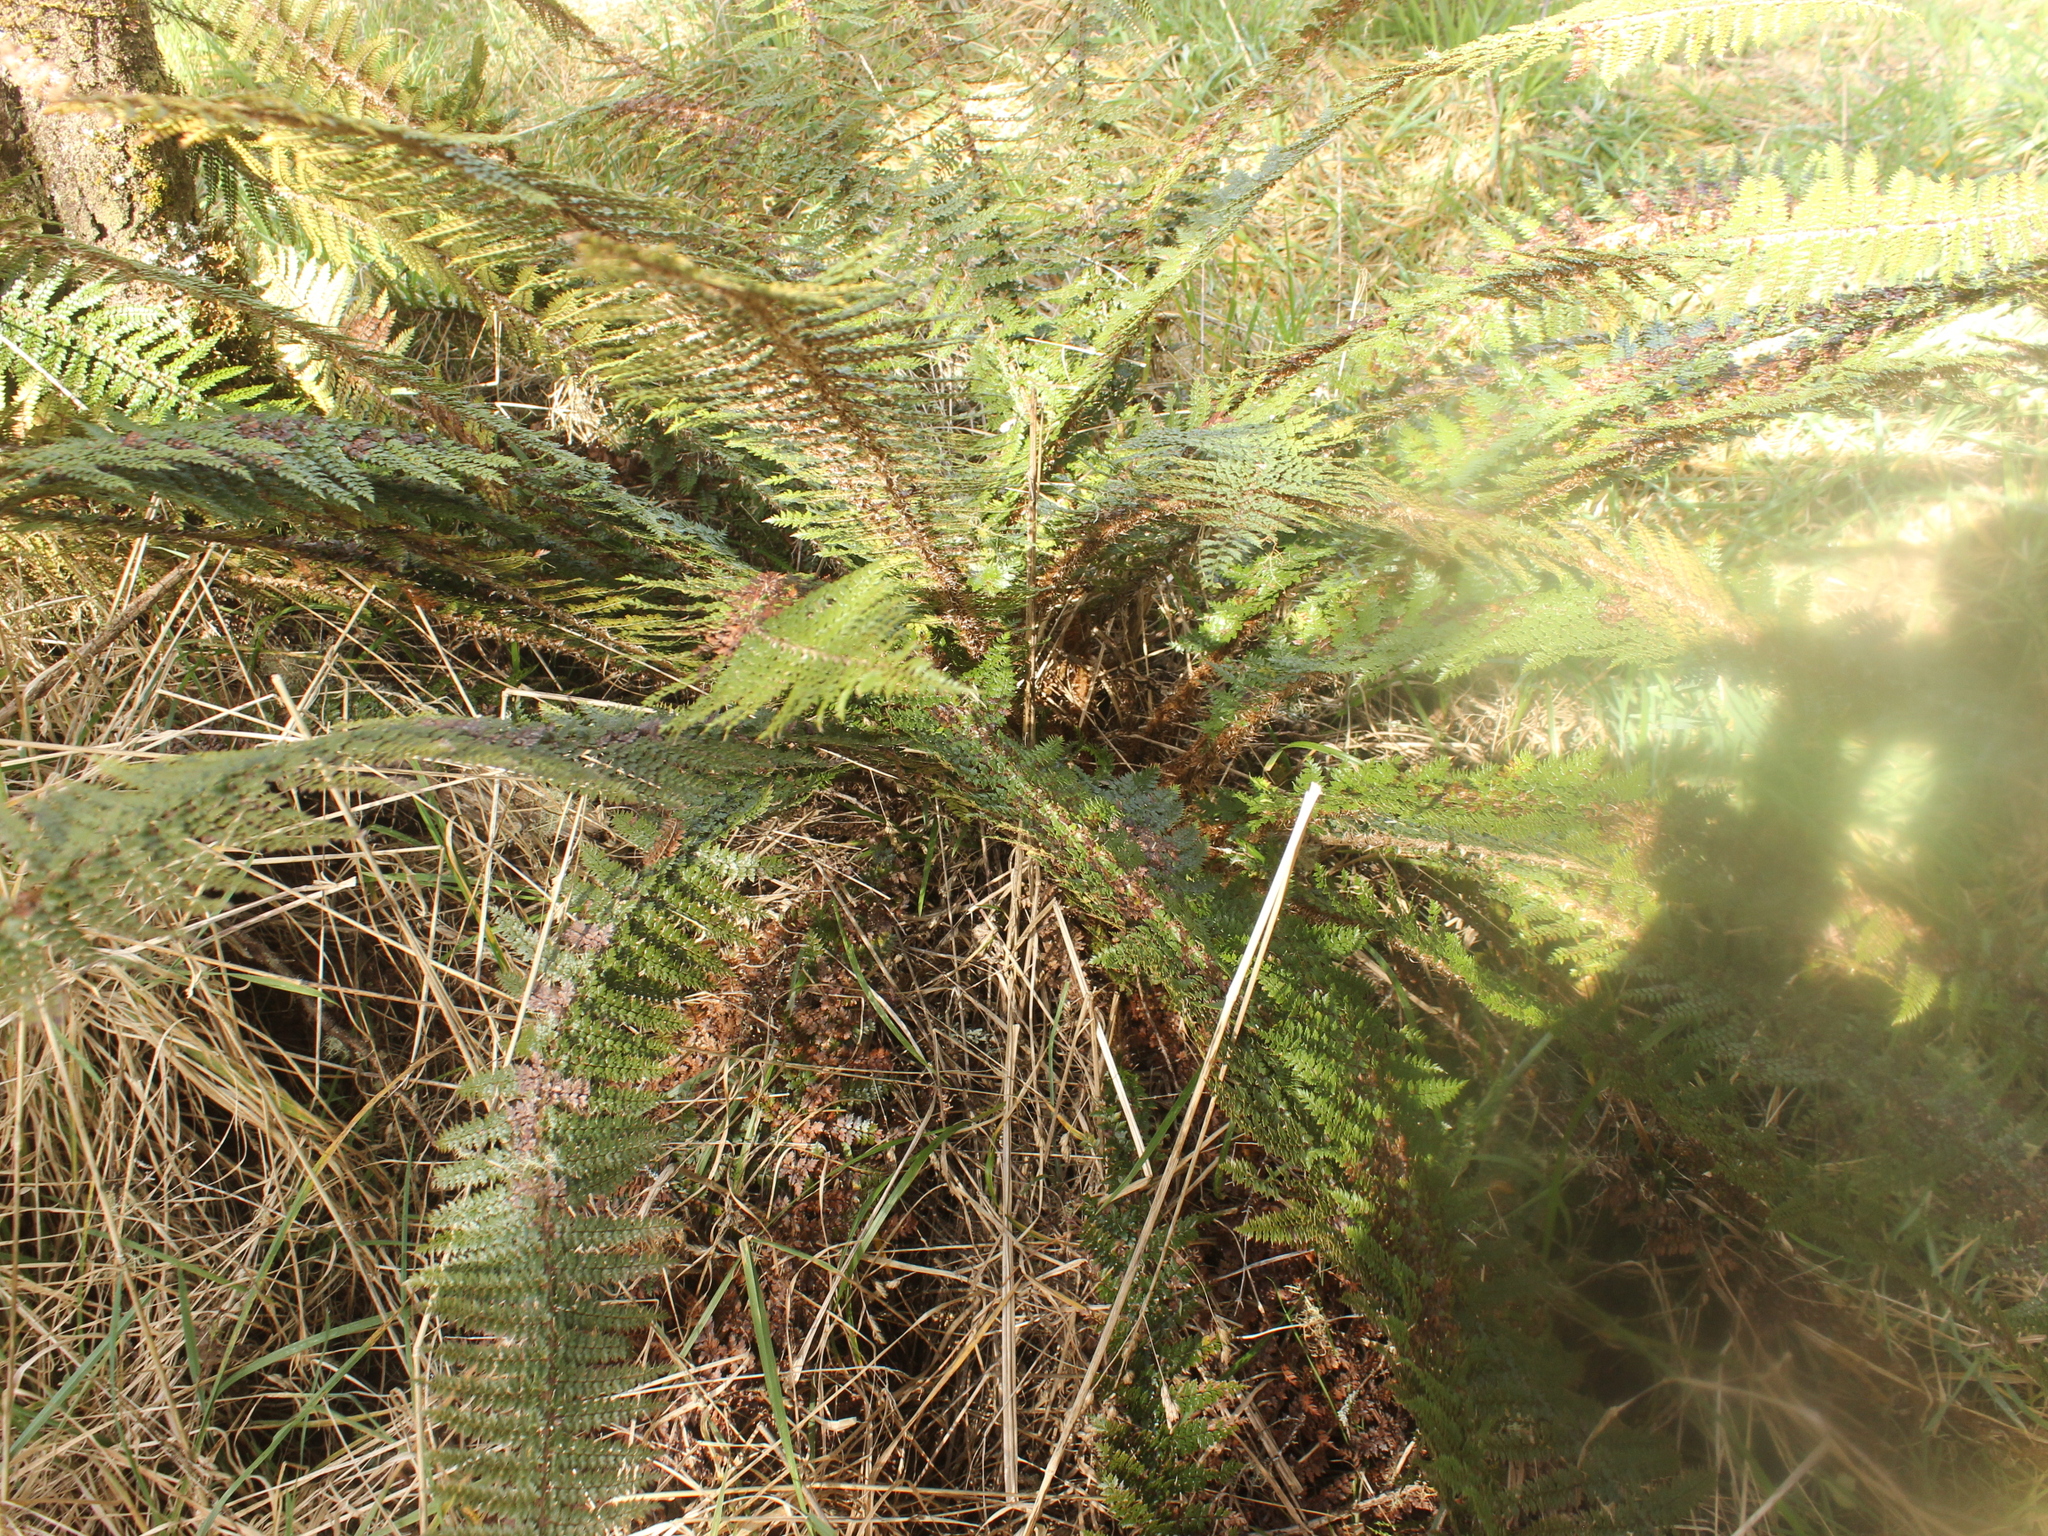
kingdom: Plantae
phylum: Tracheophyta
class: Polypodiopsida
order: Polypodiales
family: Dryopteridaceae
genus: Polystichum
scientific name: Polystichum vestitum
